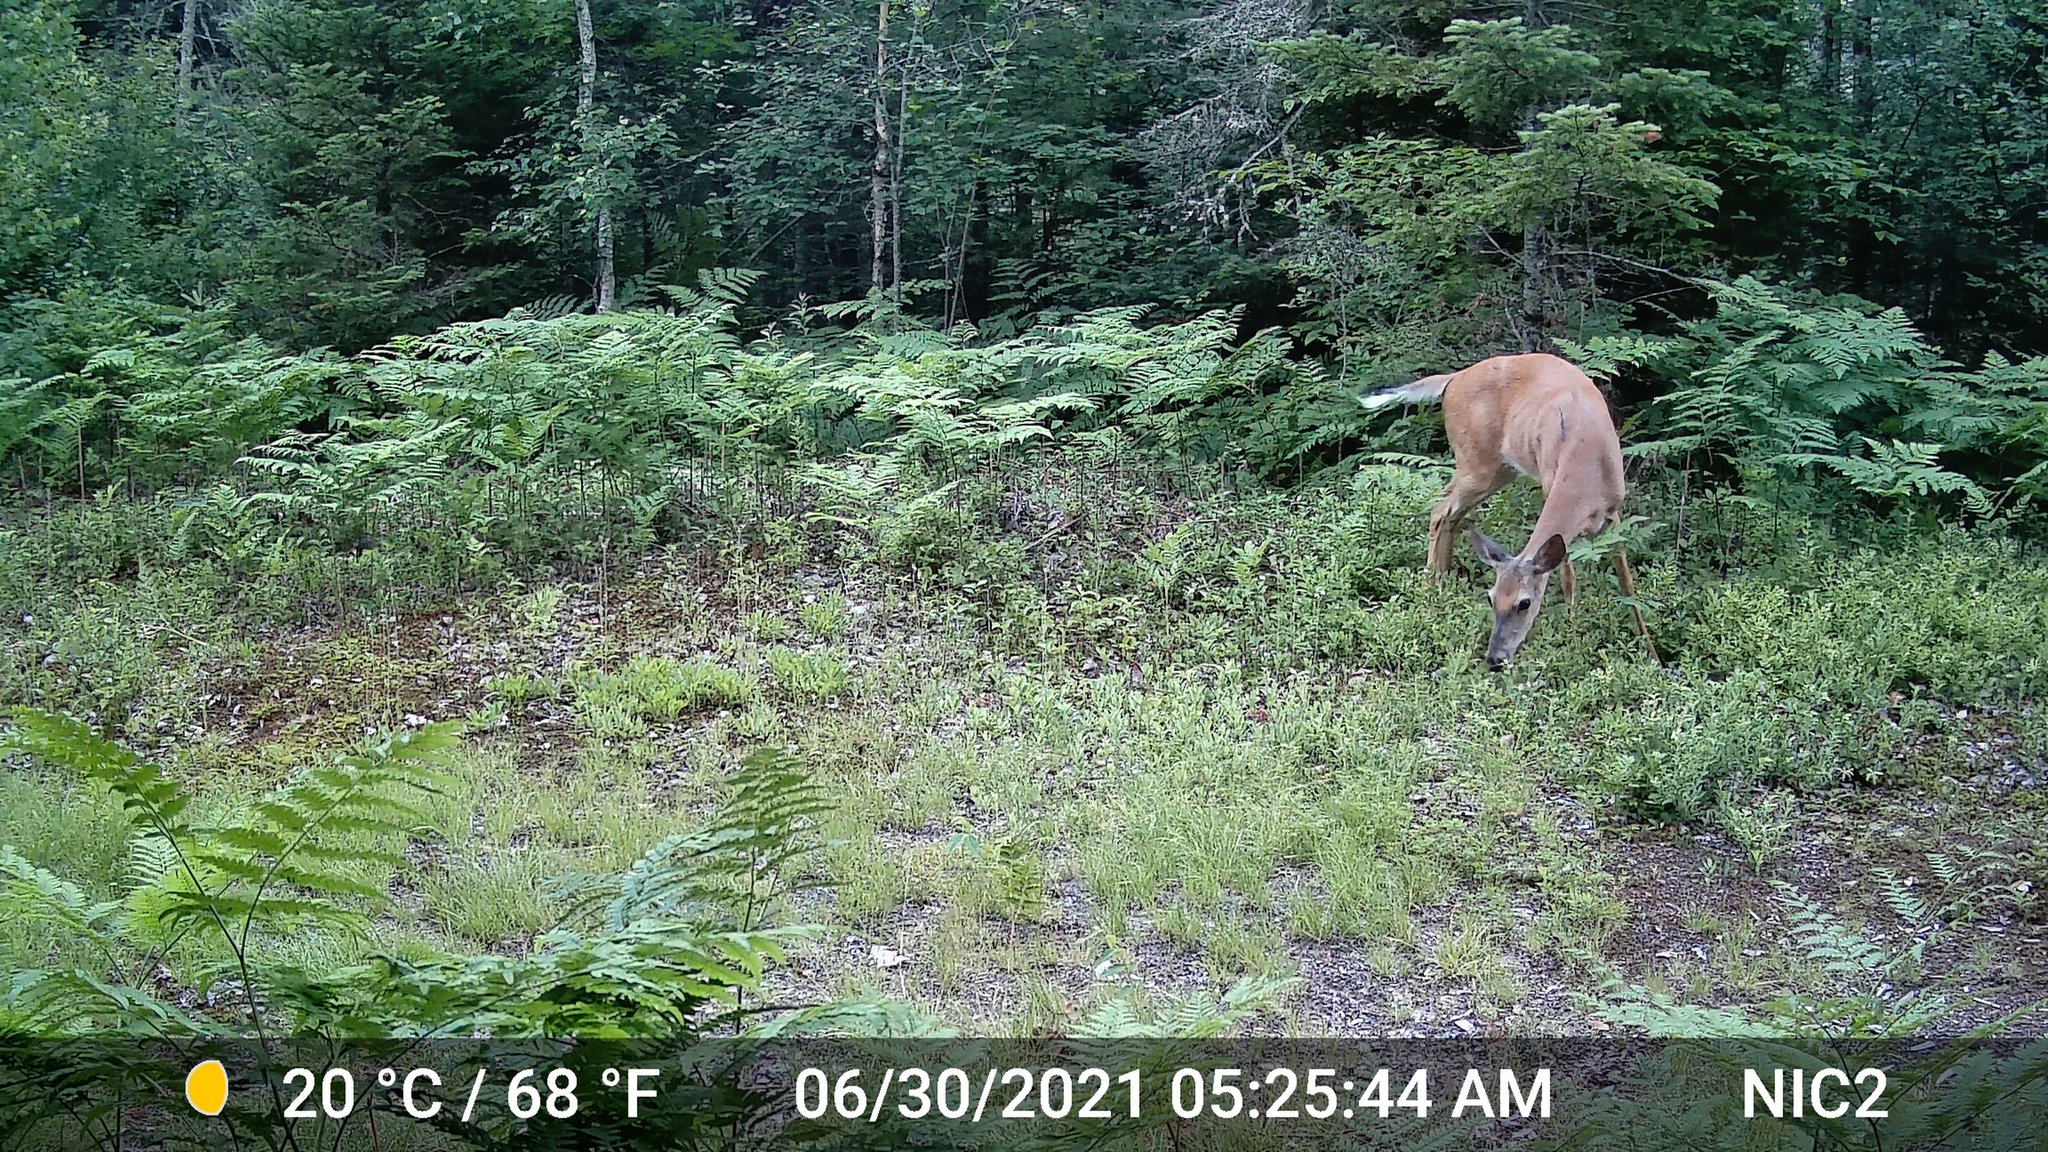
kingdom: Animalia
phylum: Chordata
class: Mammalia
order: Artiodactyla
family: Cervidae
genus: Odocoileus
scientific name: Odocoileus virginianus
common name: White-tailed deer
